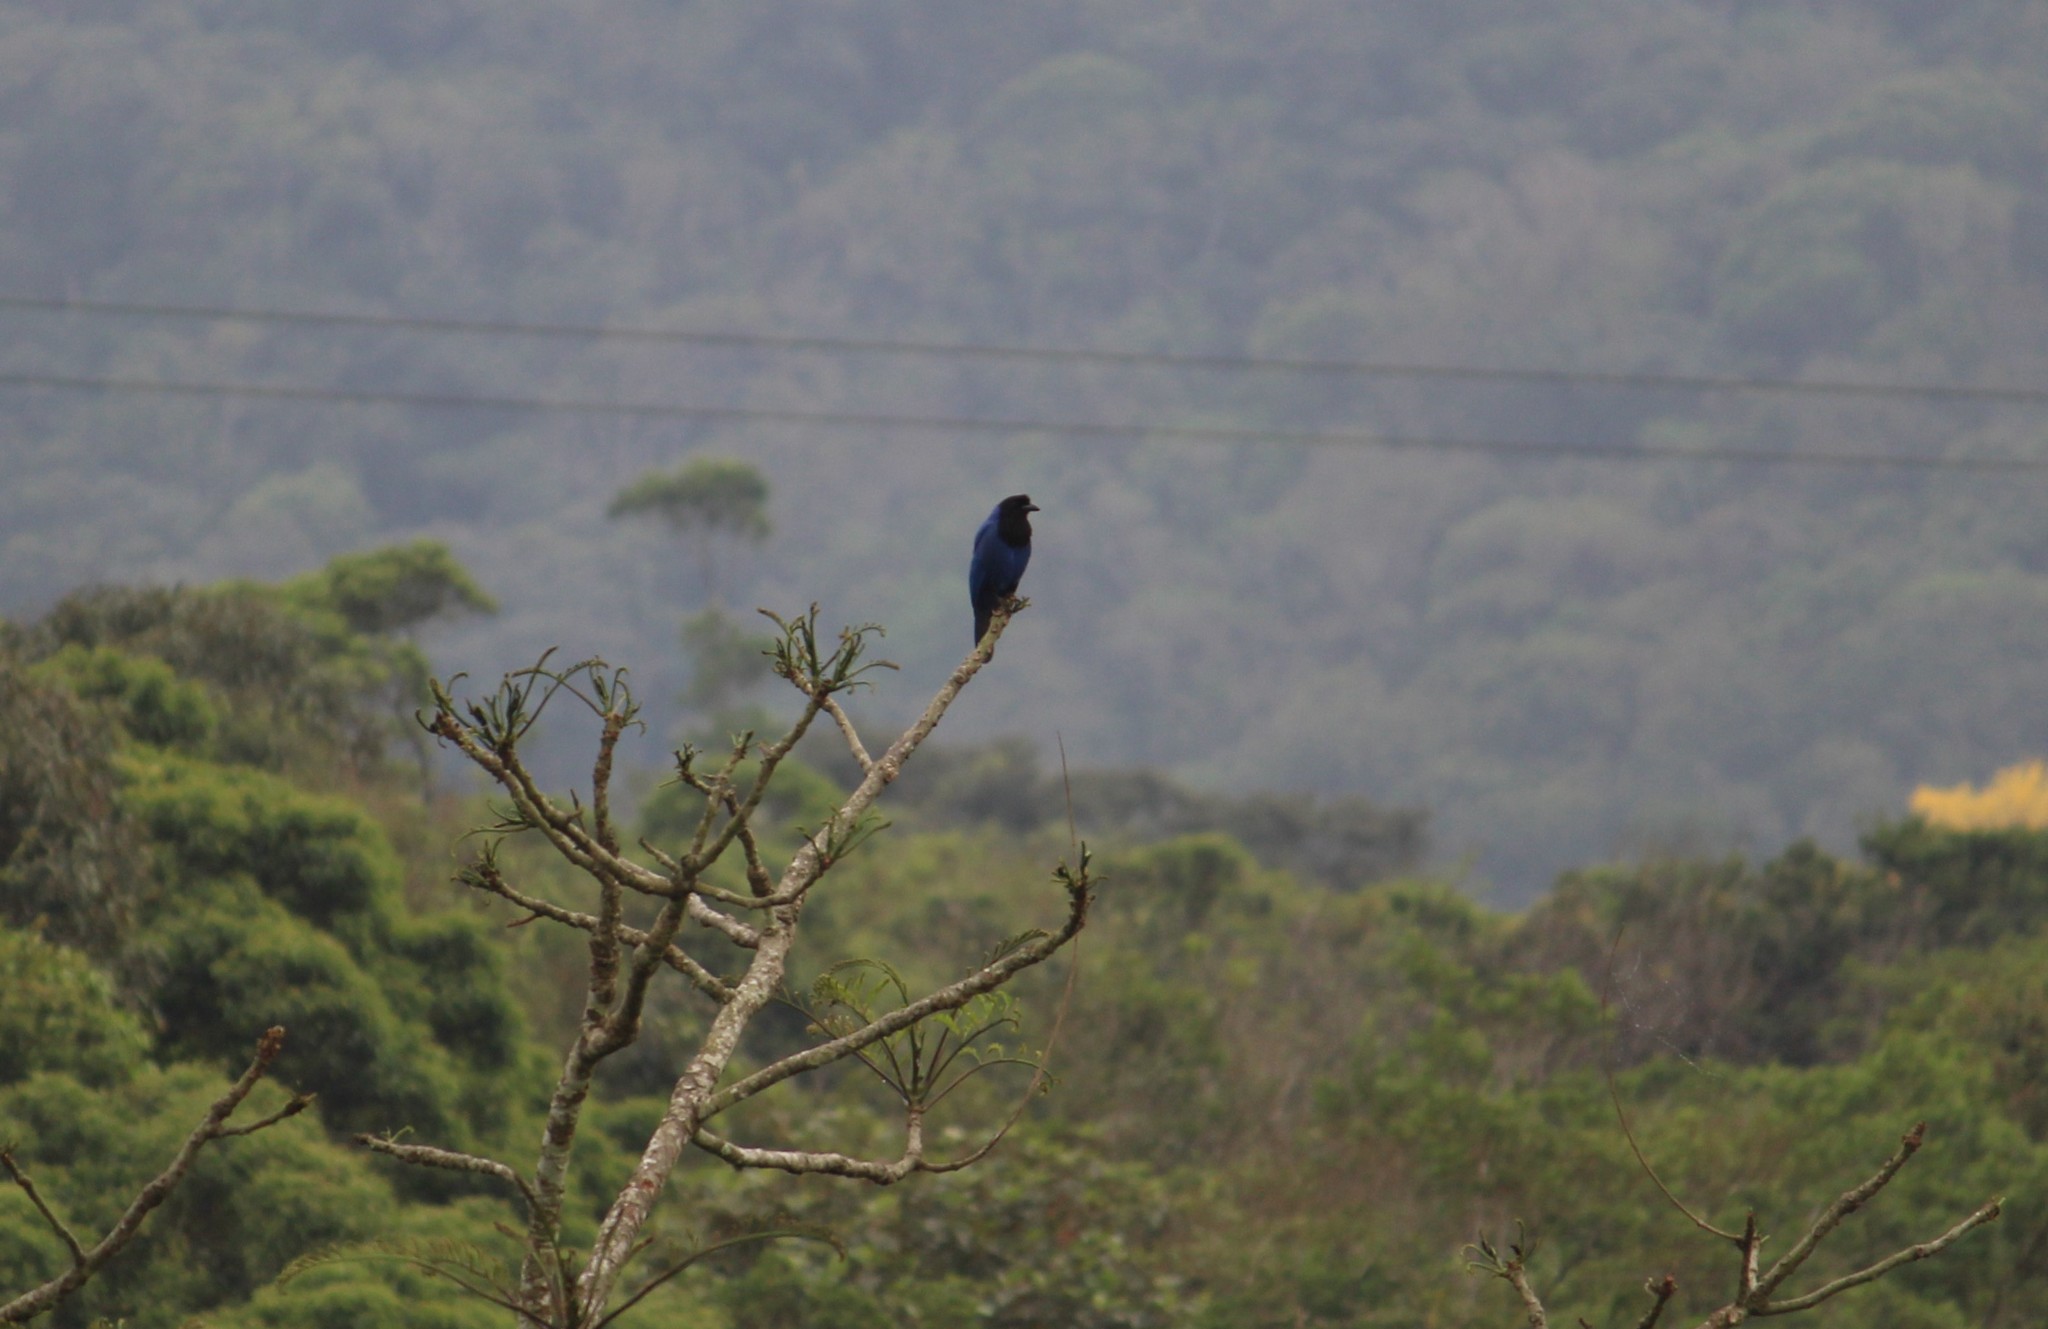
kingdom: Animalia
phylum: Chordata
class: Aves
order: Passeriformes
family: Corvidae
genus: Cyanocorax
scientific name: Cyanocorax caeruleus
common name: Azure jay
